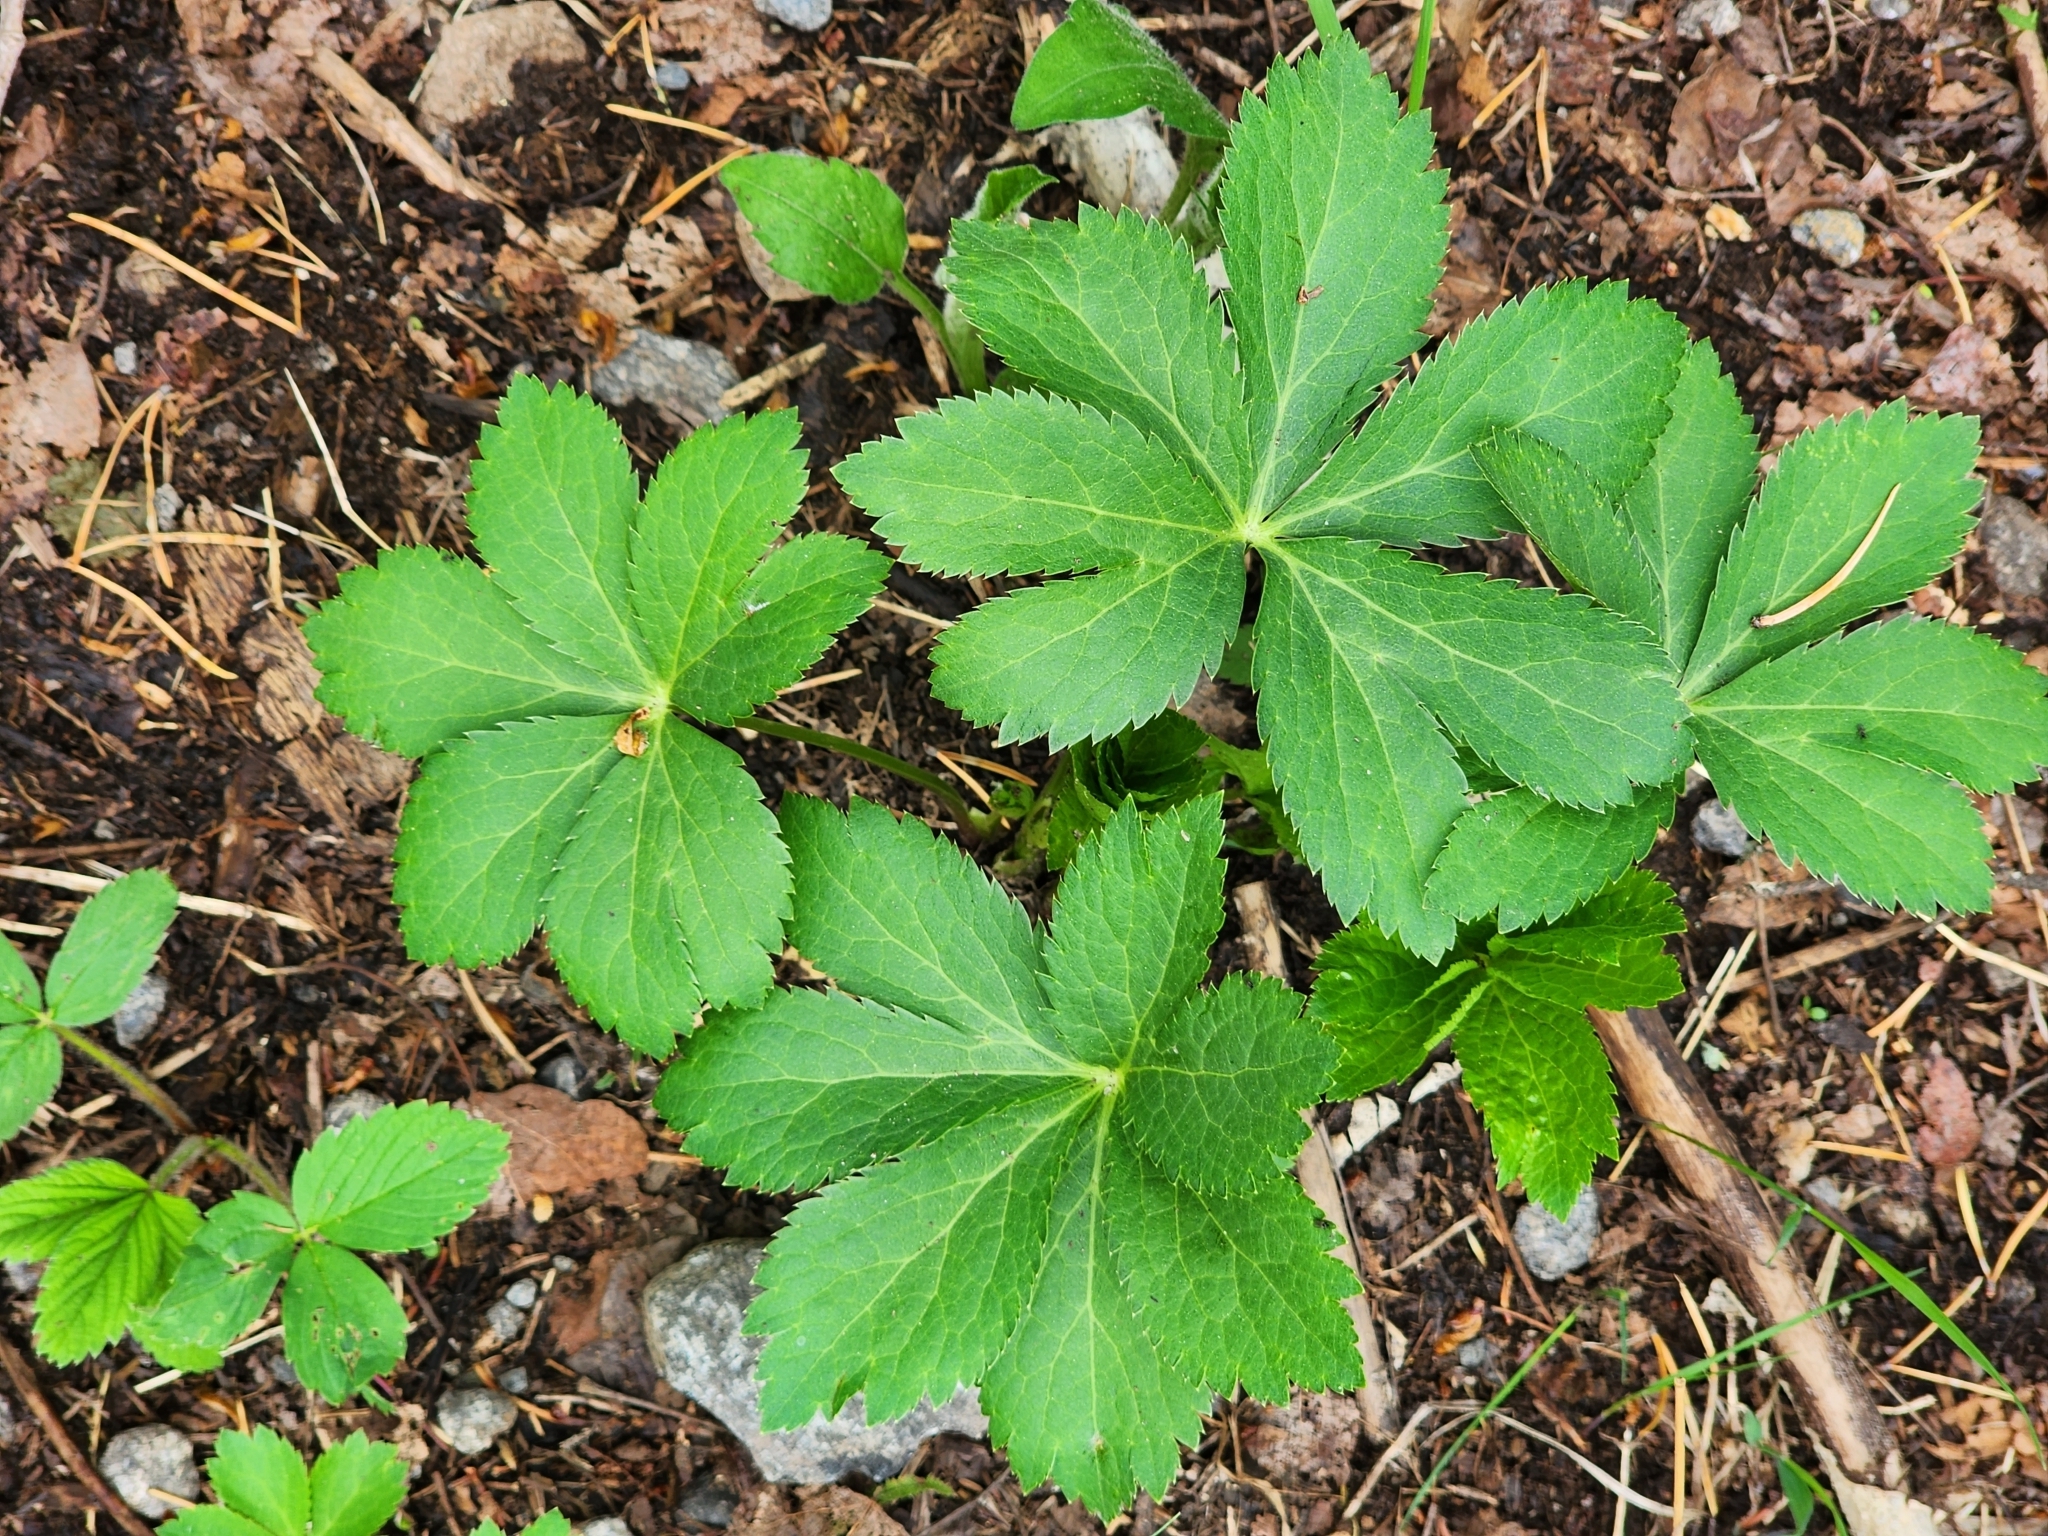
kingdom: Plantae
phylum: Tracheophyta
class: Magnoliopsida
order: Apiales
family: Apiaceae
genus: Sanicula
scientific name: Sanicula marilandica
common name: Black snakeroot
